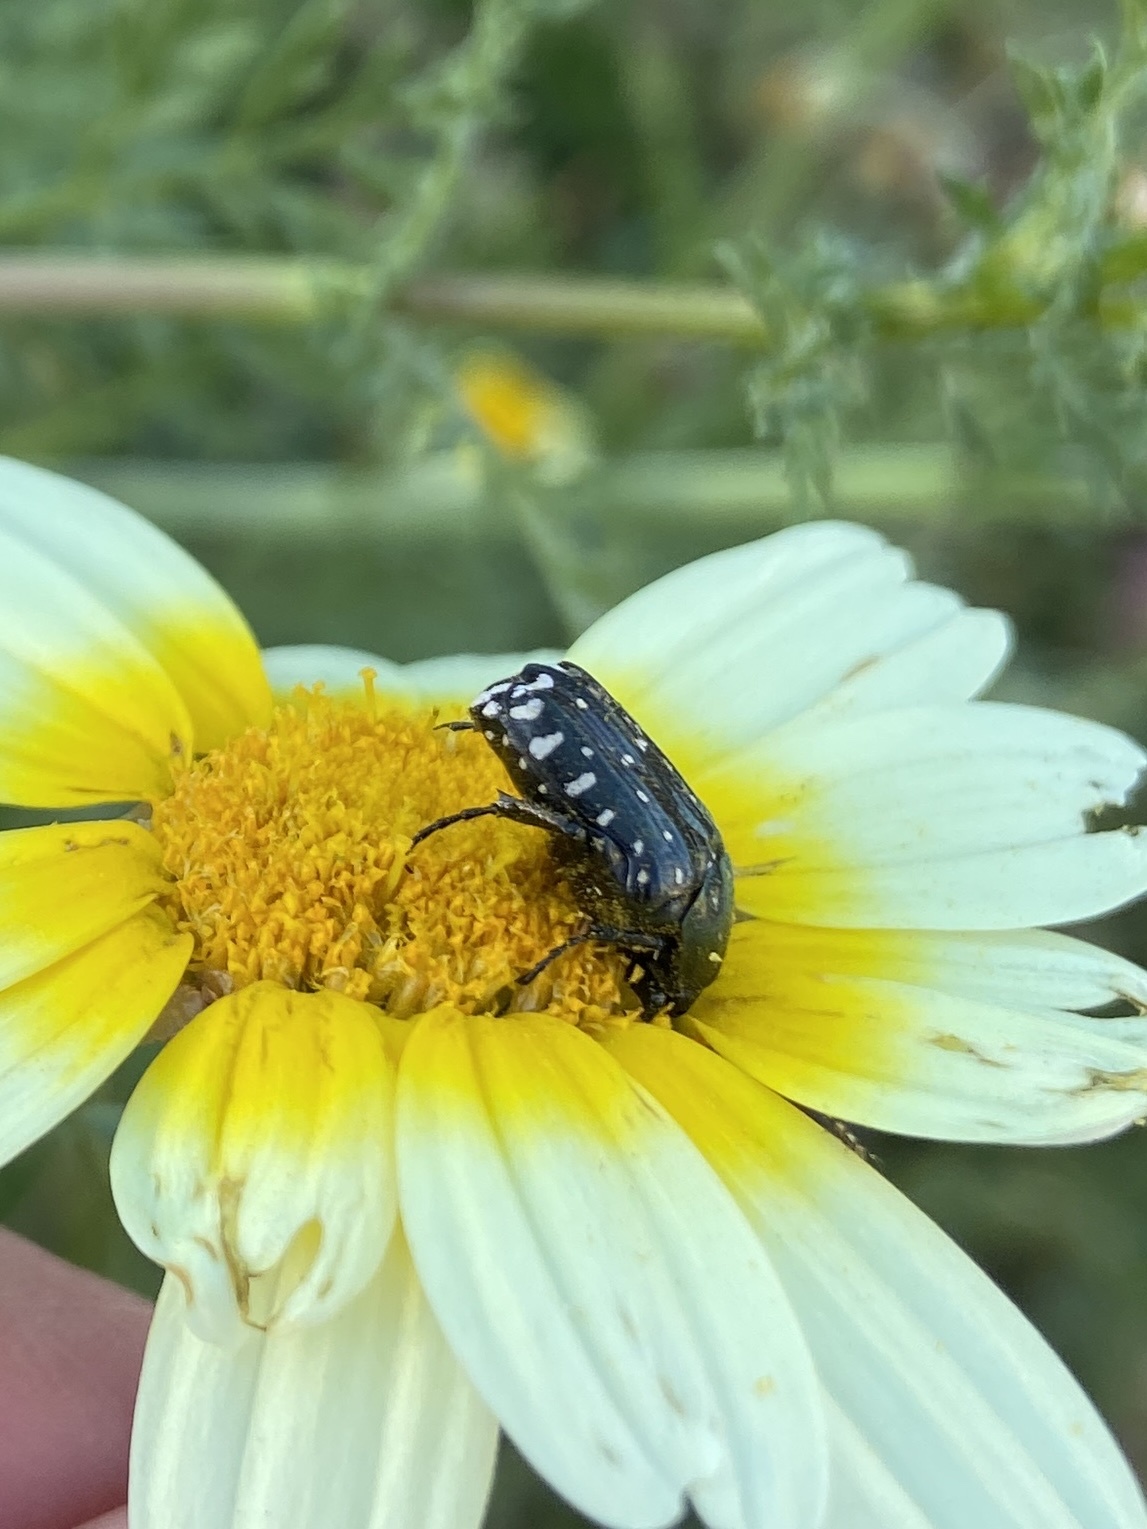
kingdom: Animalia
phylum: Arthropoda
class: Insecta
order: Coleoptera
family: Scarabaeidae
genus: Oxythyrea
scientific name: Oxythyrea funesta
